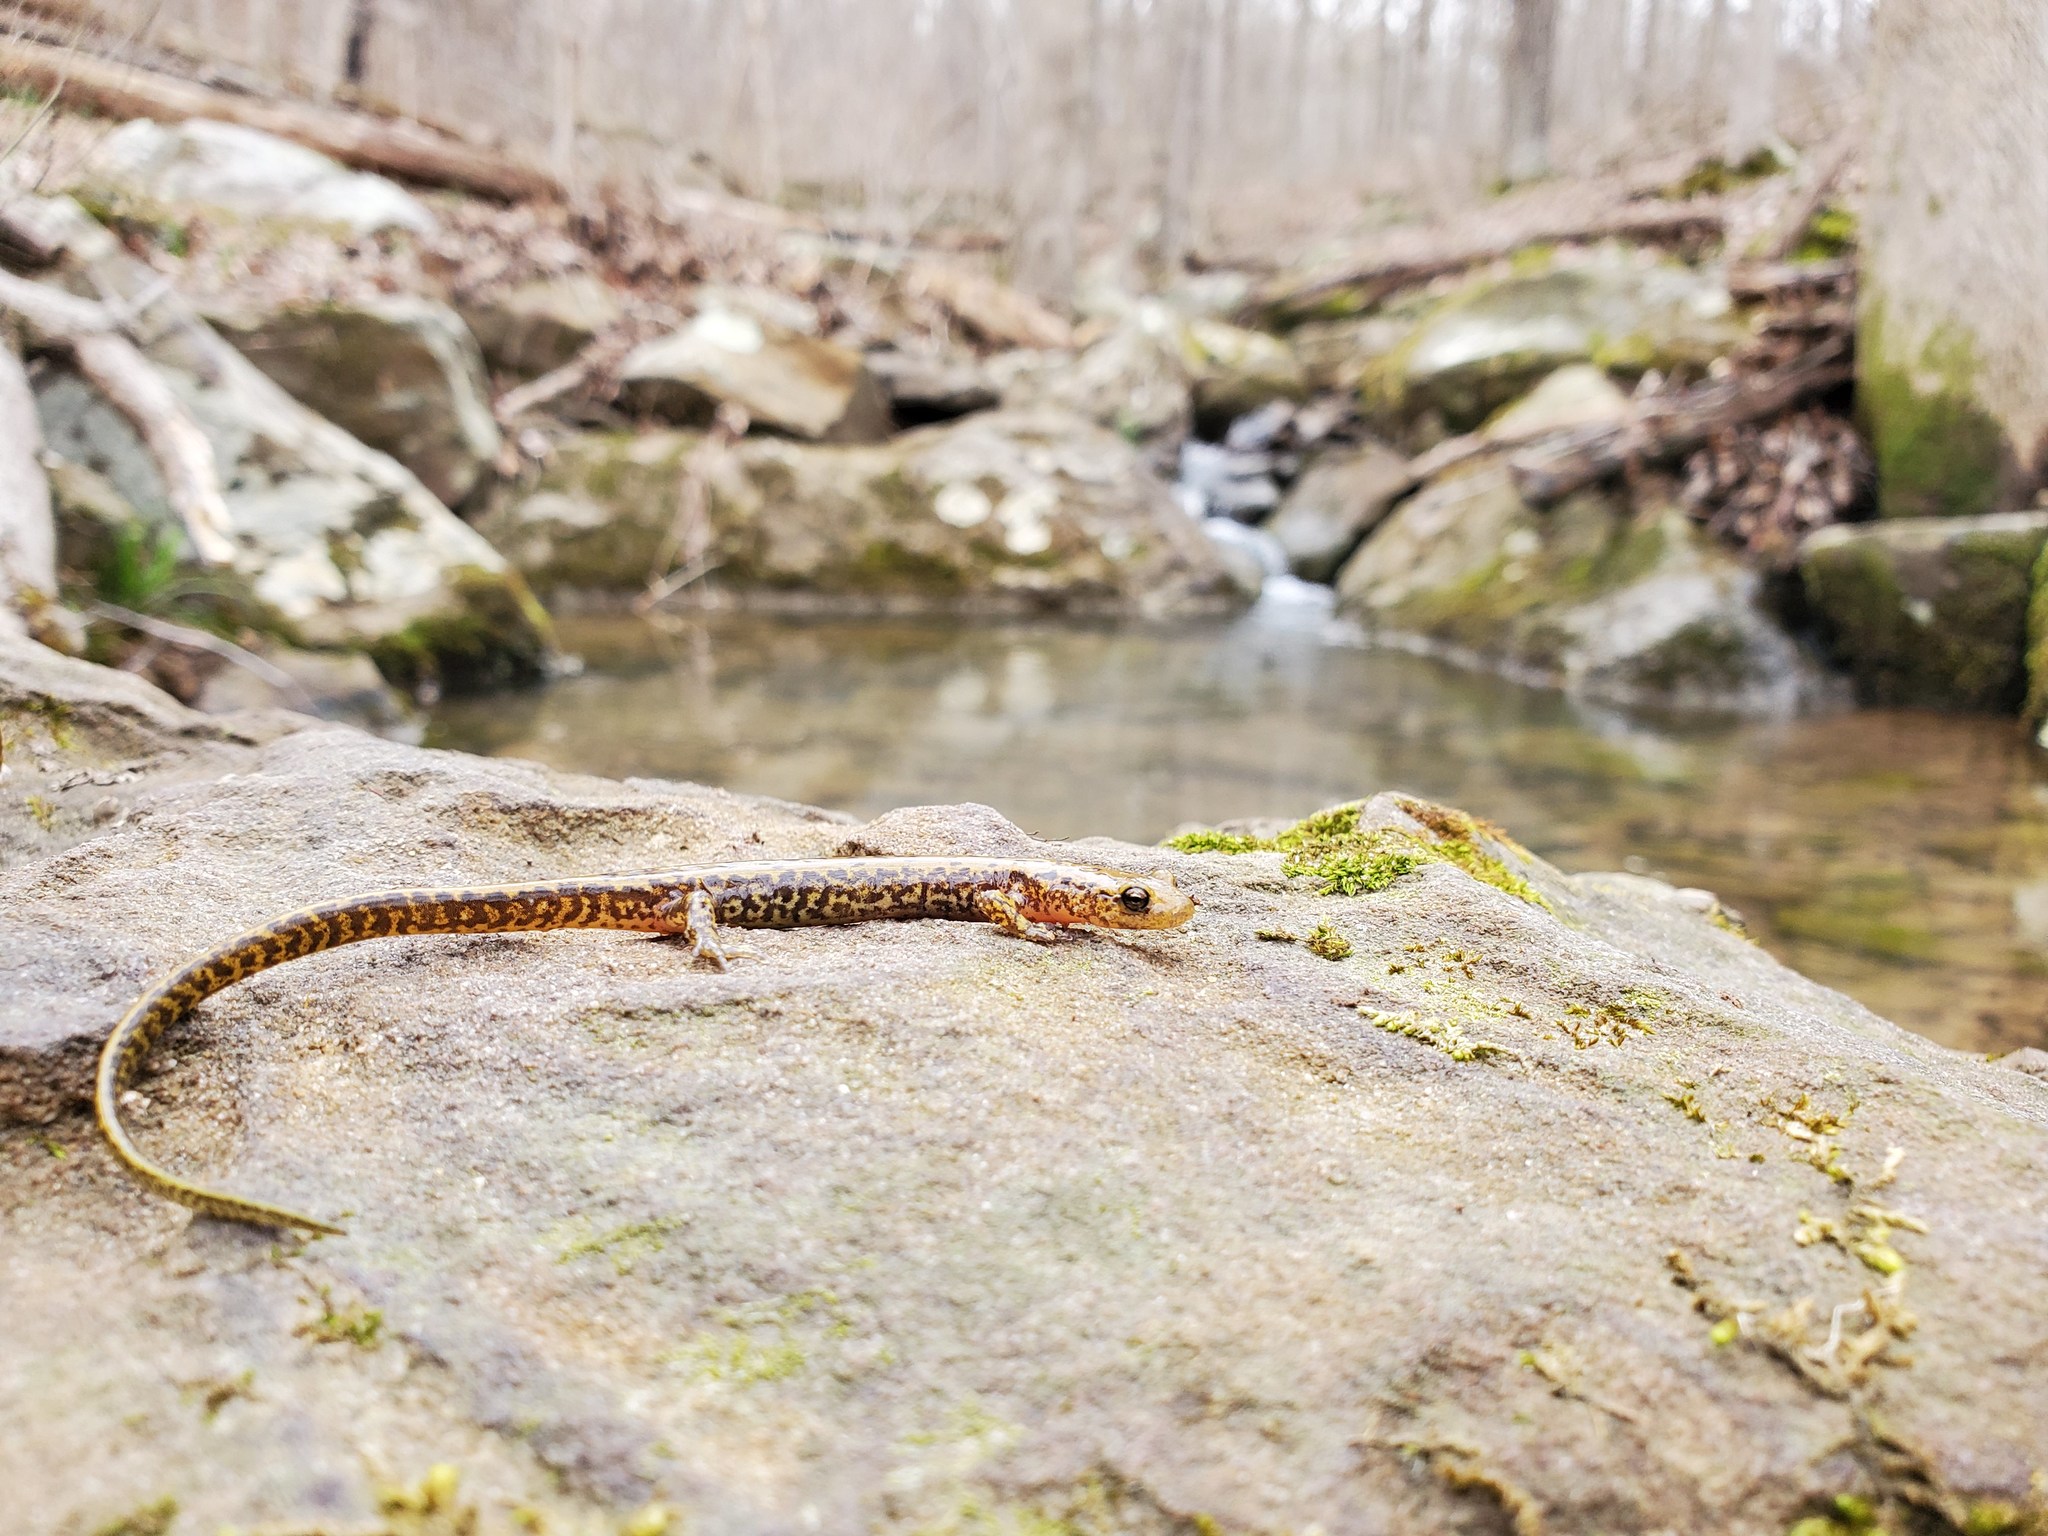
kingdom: Animalia
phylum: Chordata
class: Amphibia
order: Caudata
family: Plethodontidae
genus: Eurycea
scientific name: Eurycea longicauda
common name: Long-tailed salamander
